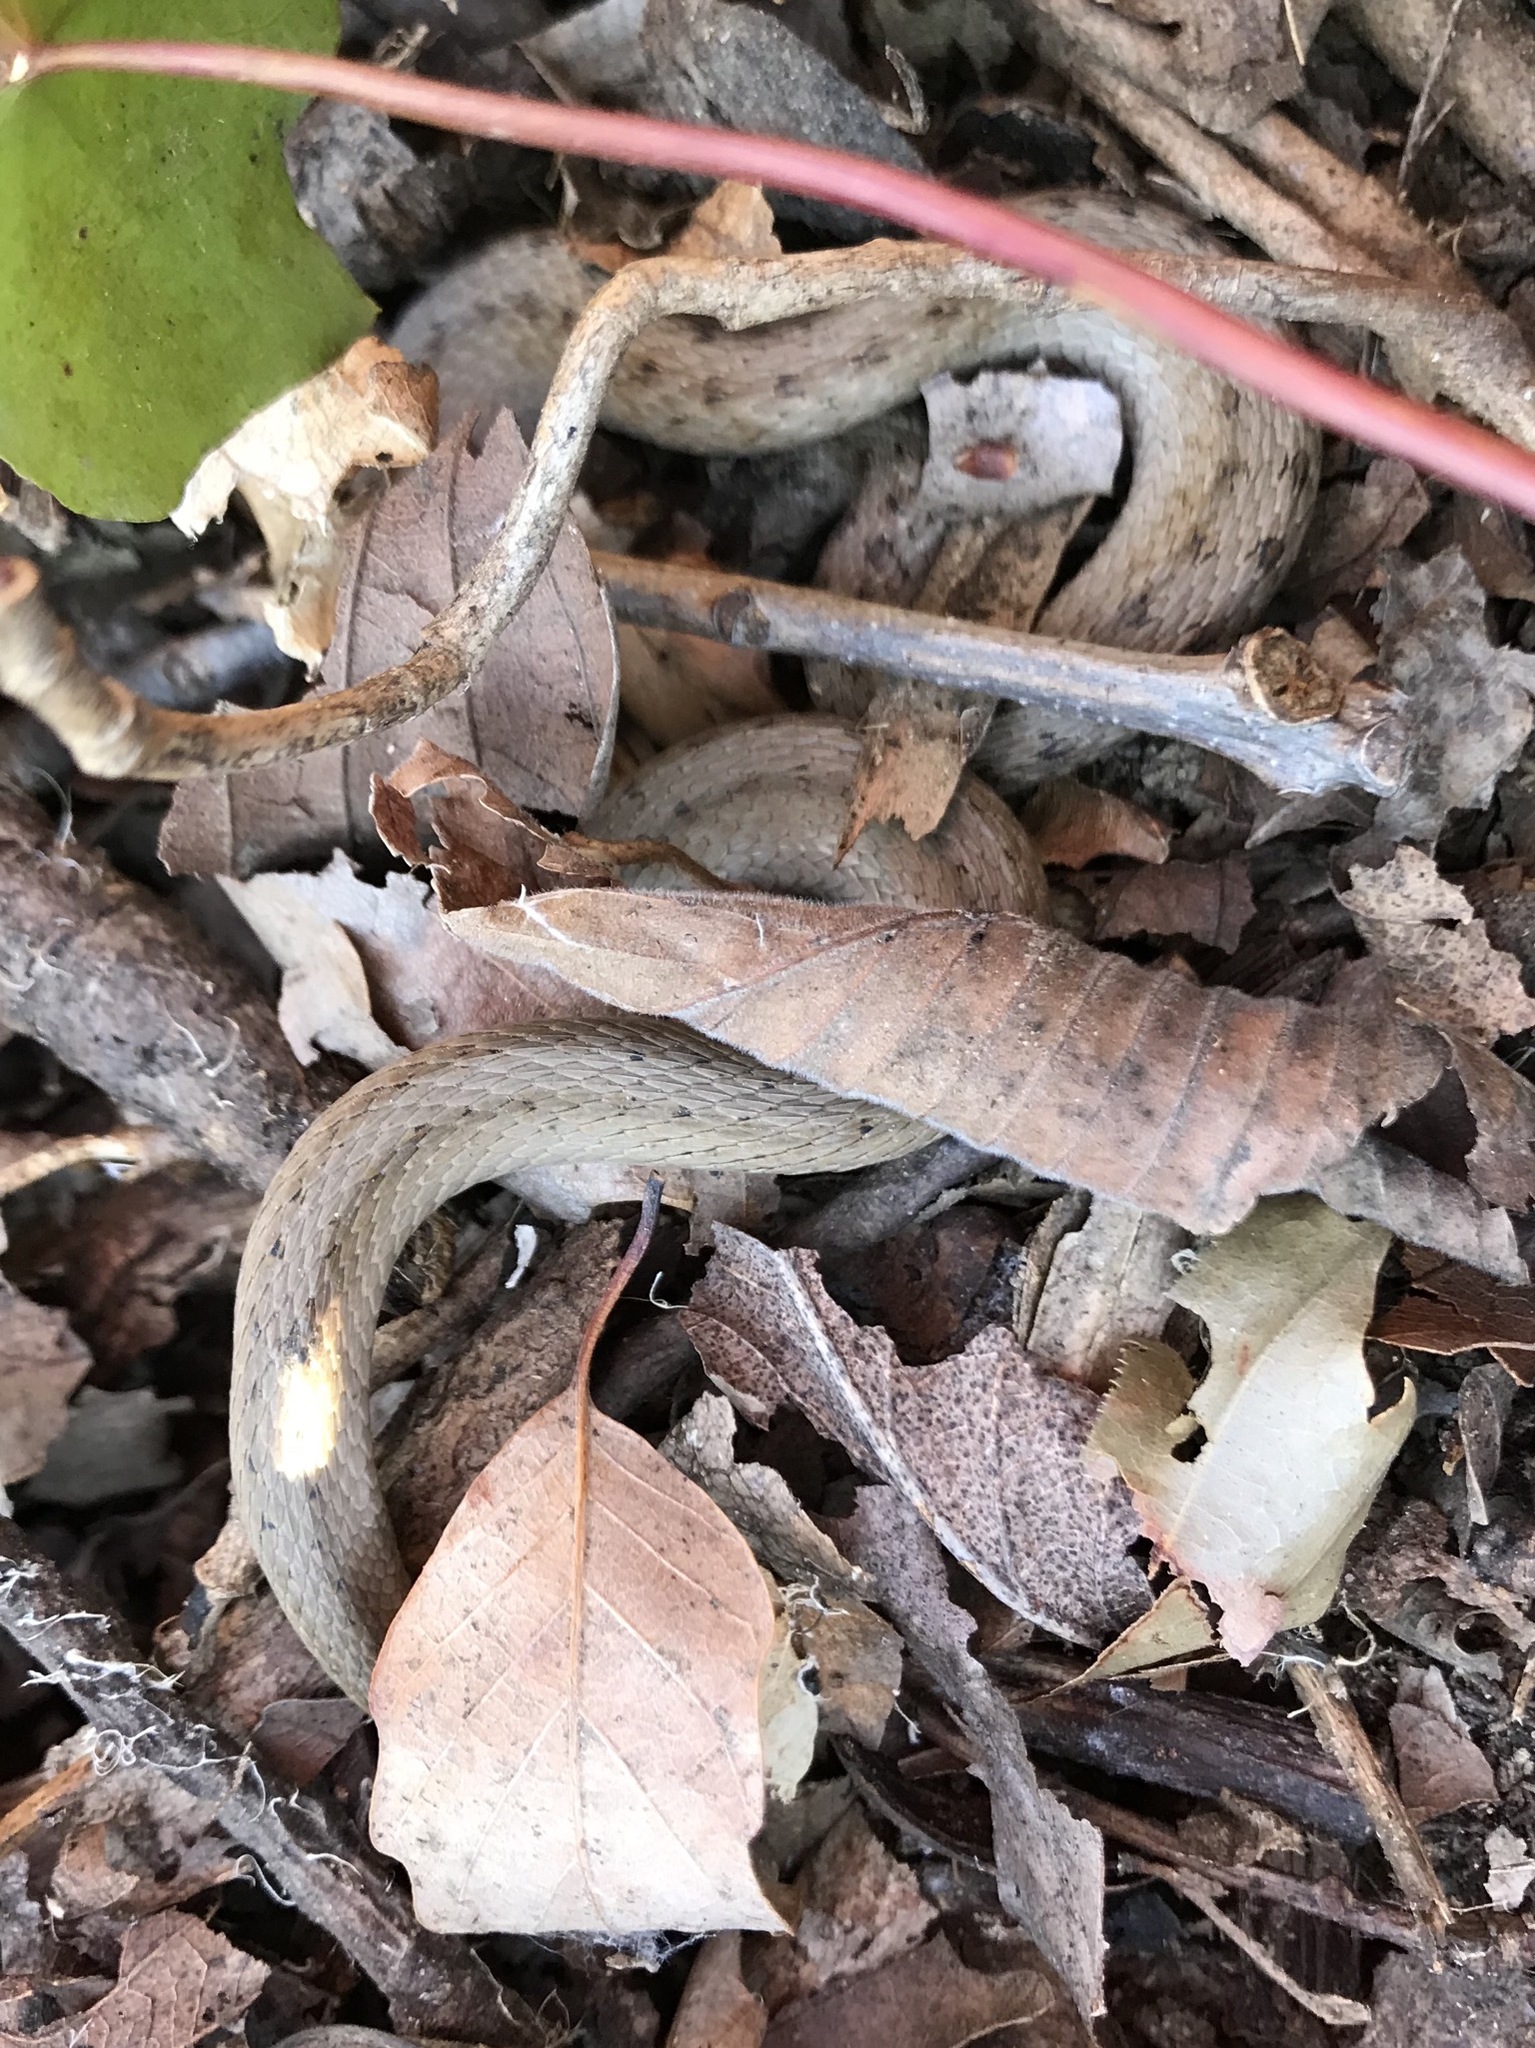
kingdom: Animalia
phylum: Chordata
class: Squamata
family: Colubridae
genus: Storeria
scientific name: Storeria dekayi
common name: (dekay’s) brown snake
